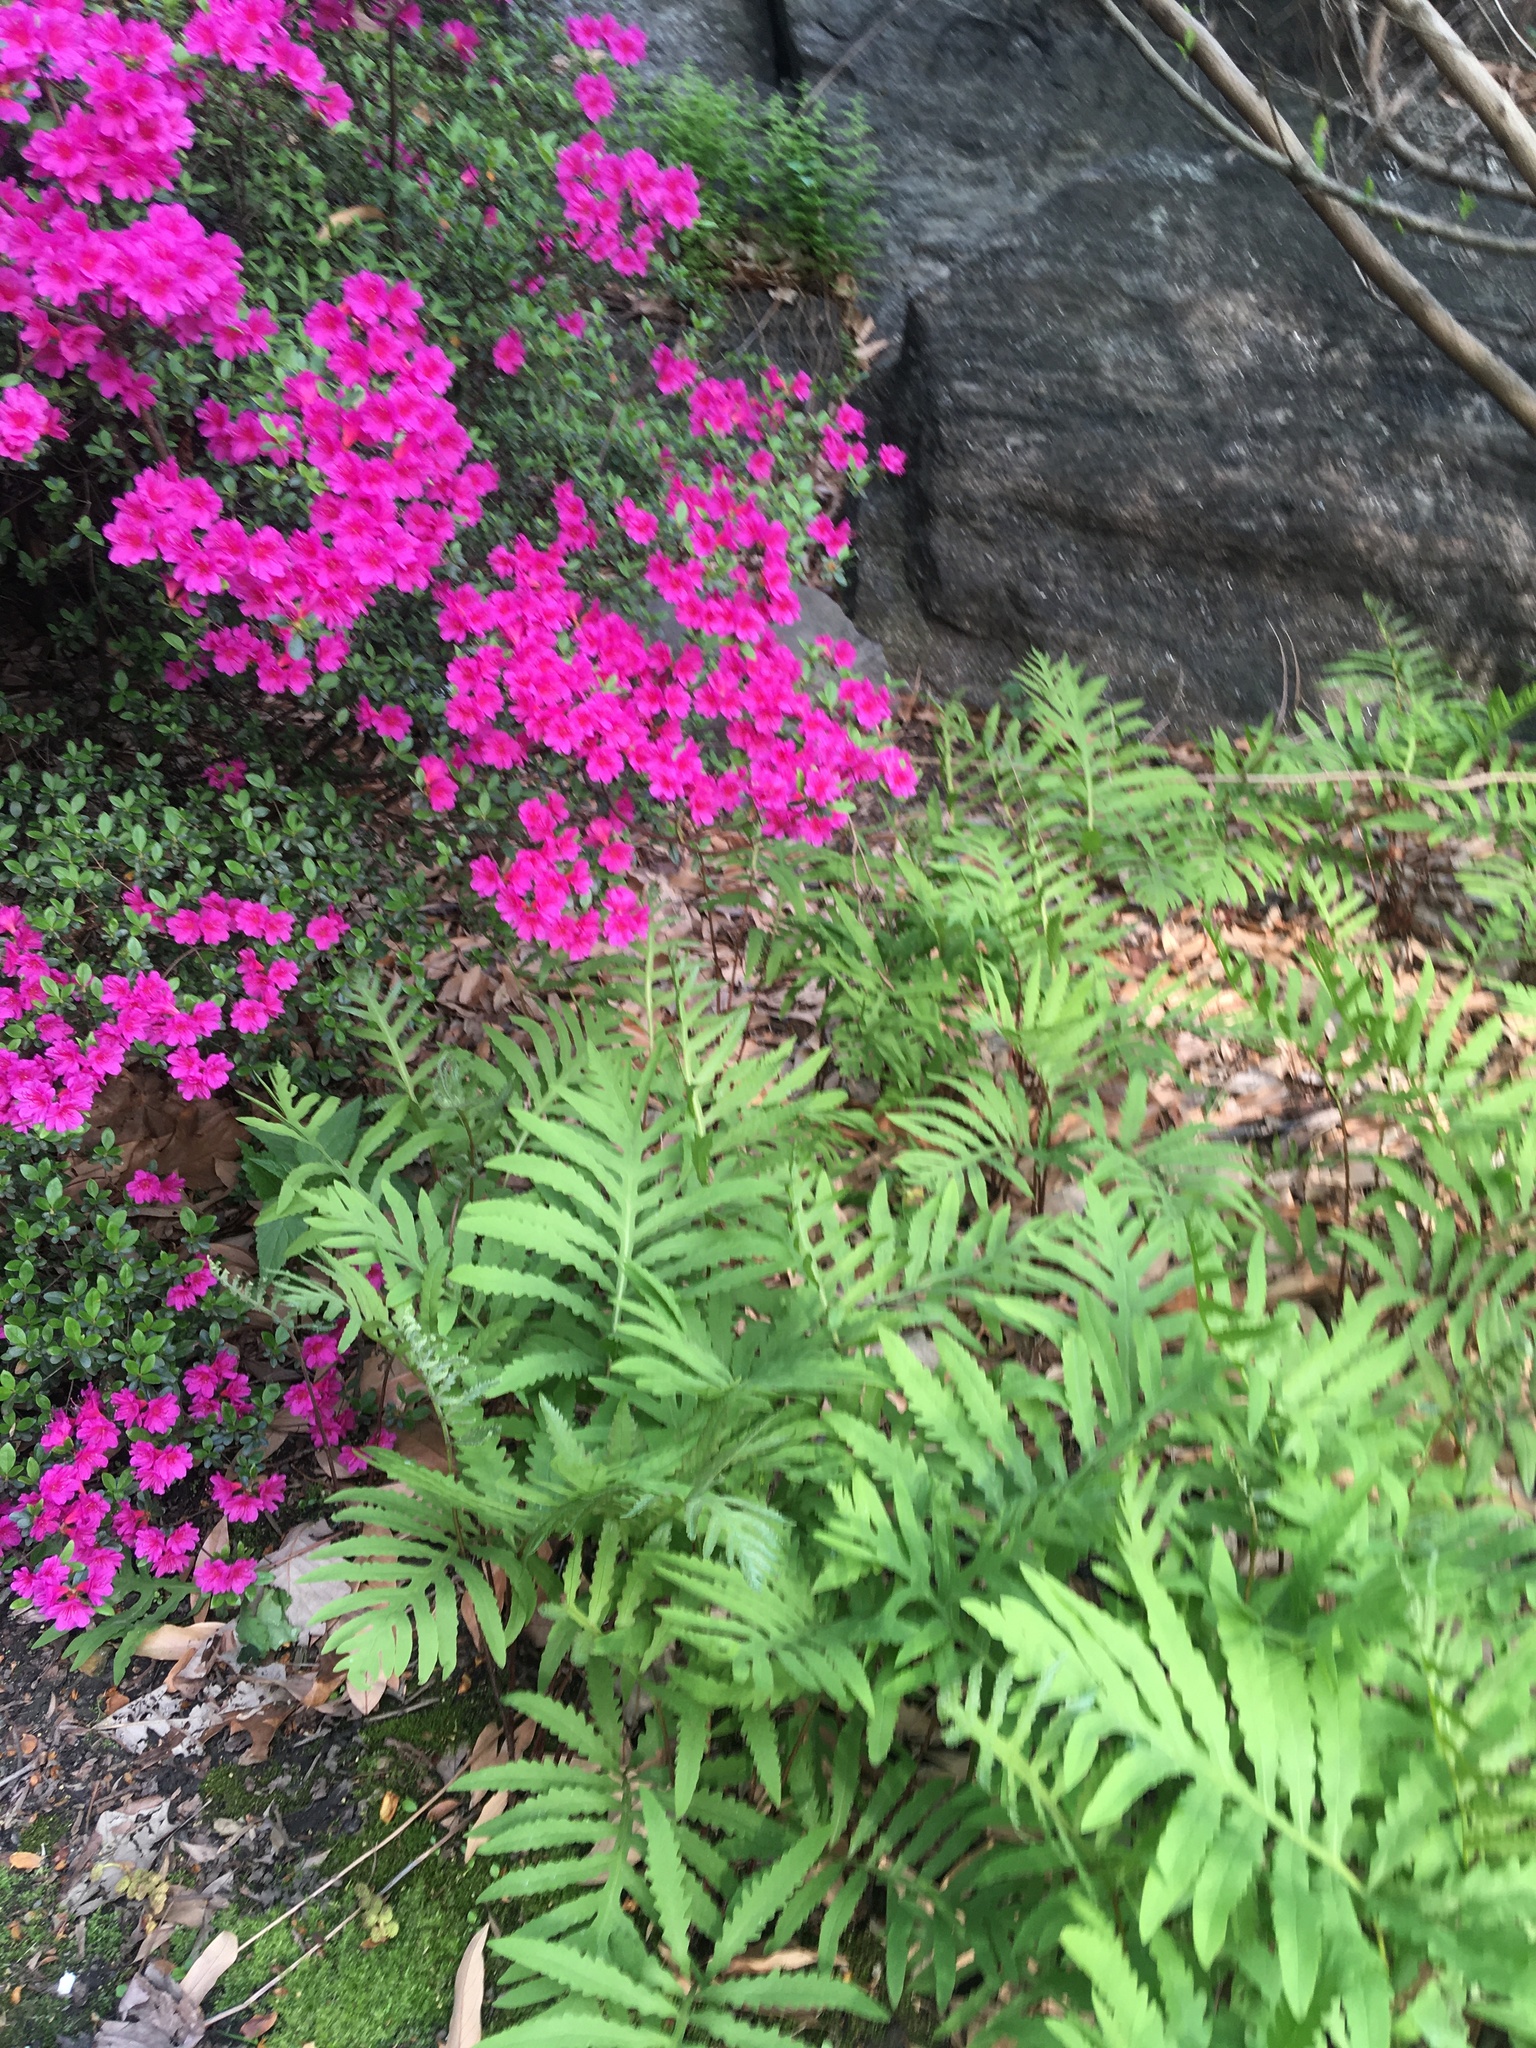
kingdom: Plantae
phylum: Tracheophyta
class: Polypodiopsida
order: Polypodiales
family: Onocleaceae
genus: Onoclea
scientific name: Onoclea sensibilis
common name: Sensitive fern
